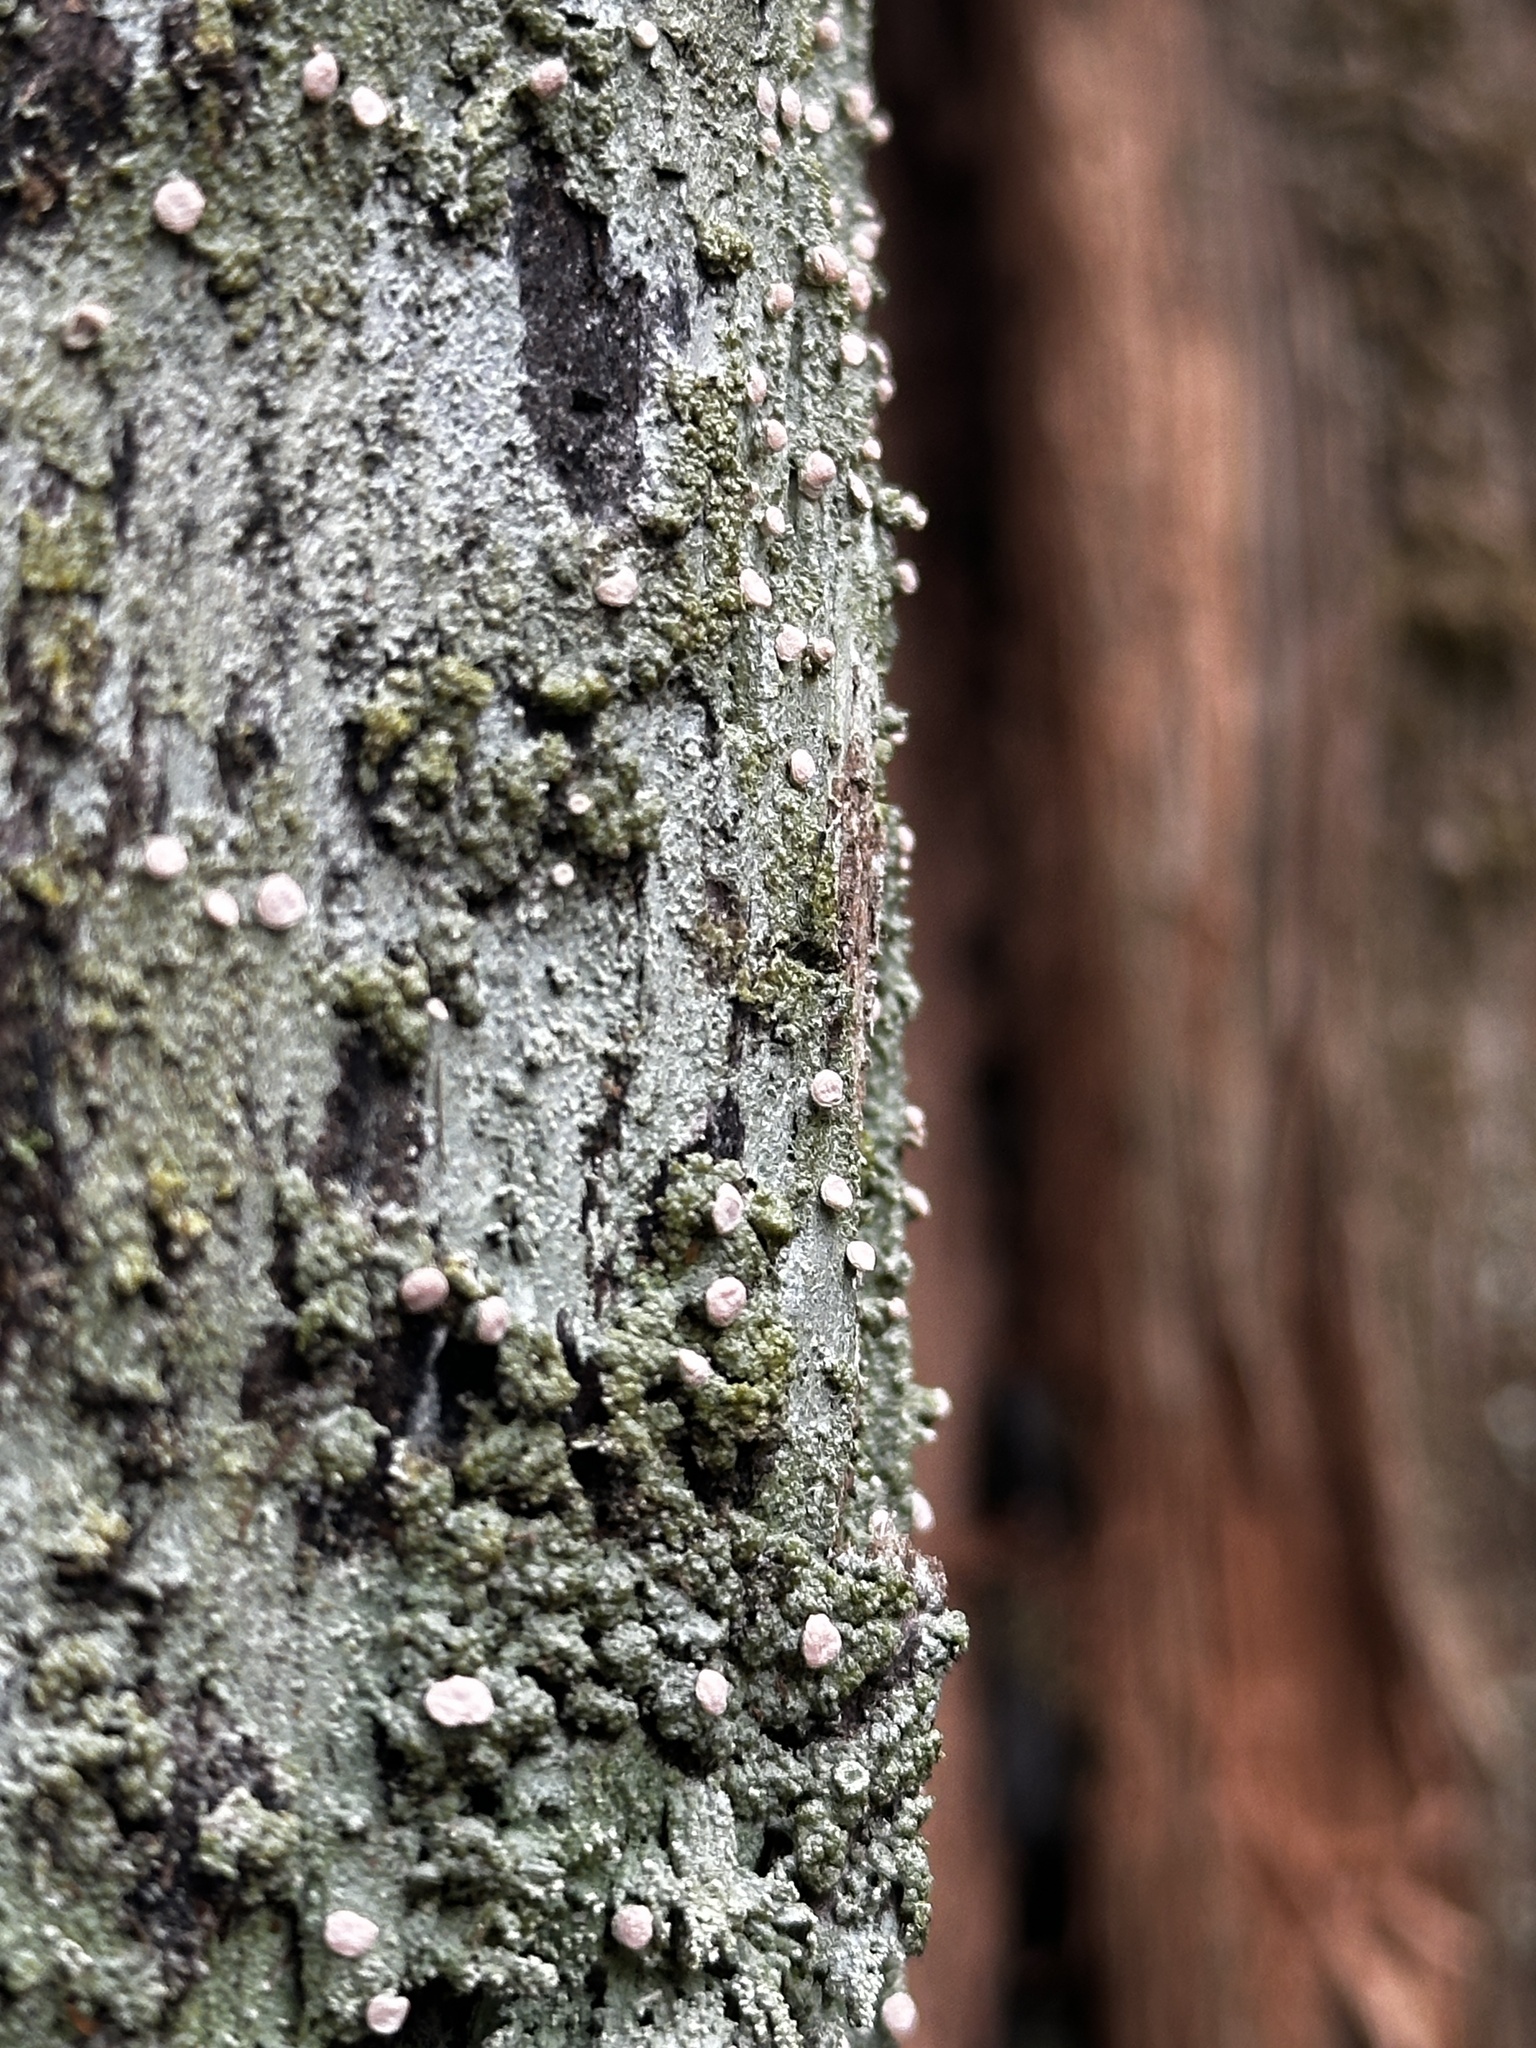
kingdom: Fungi
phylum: Ascomycota
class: Lecanoromycetes
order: Pertusariales
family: Icmadophilaceae
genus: Icmadophila
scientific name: Icmadophila ericetorum
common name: Candy lichen
